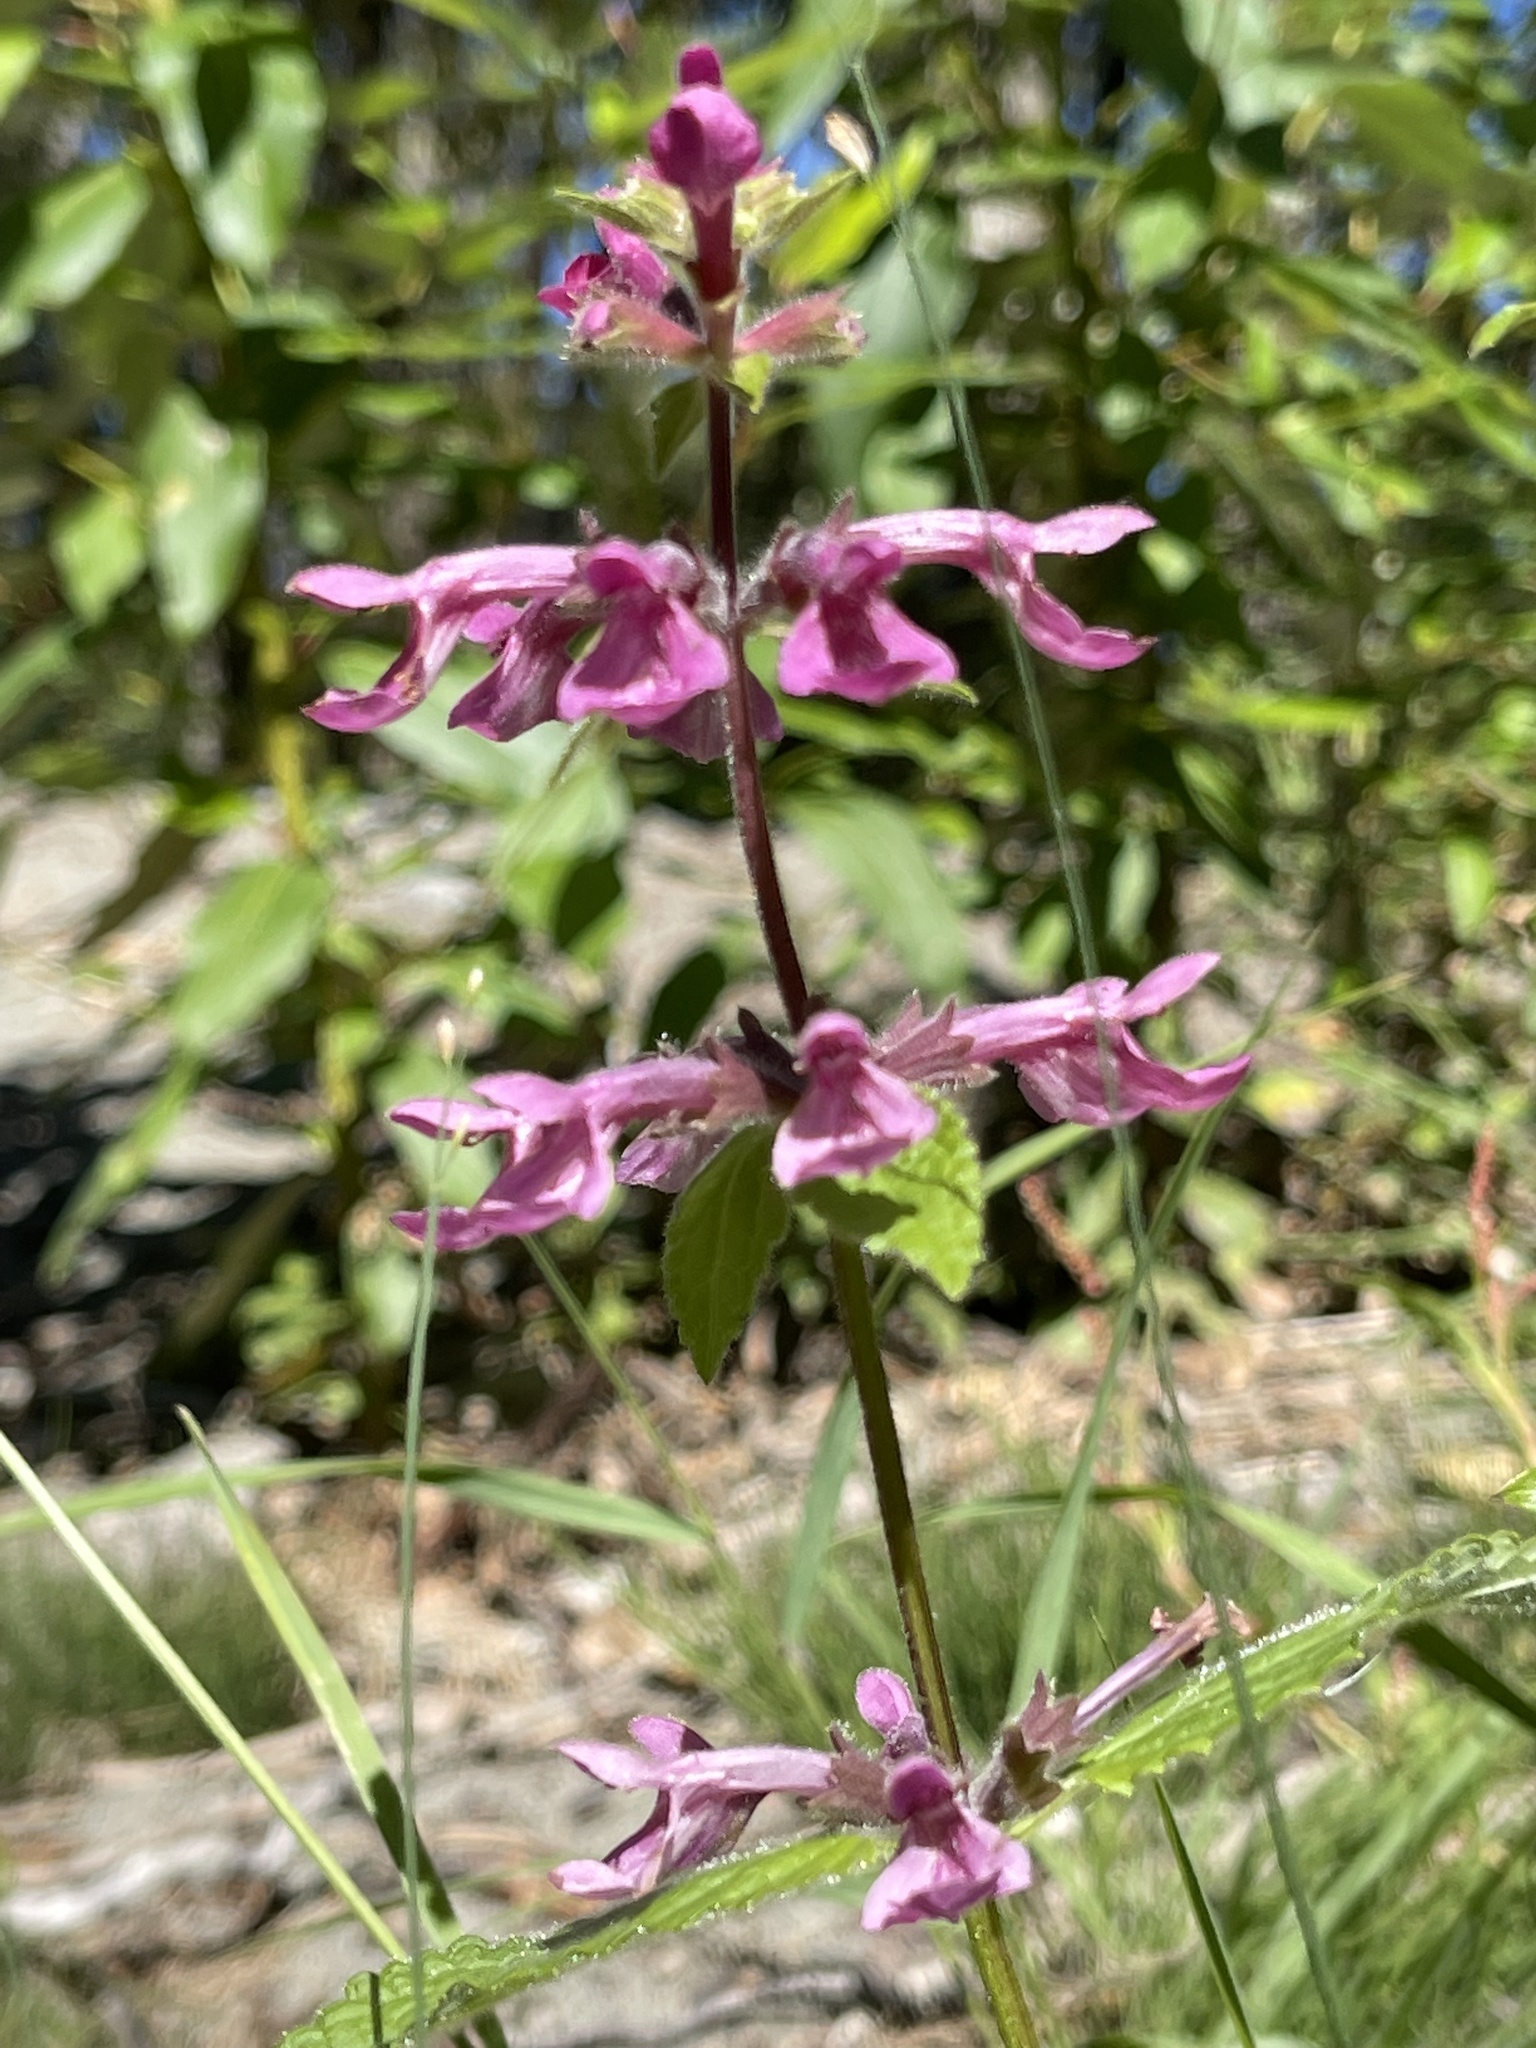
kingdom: Plantae
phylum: Tracheophyta
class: Magnoliopsida
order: Lamiales
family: Lamiaceae
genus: Stachys
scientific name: Stachys chamissonis
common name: Coastal hedge-nettle
